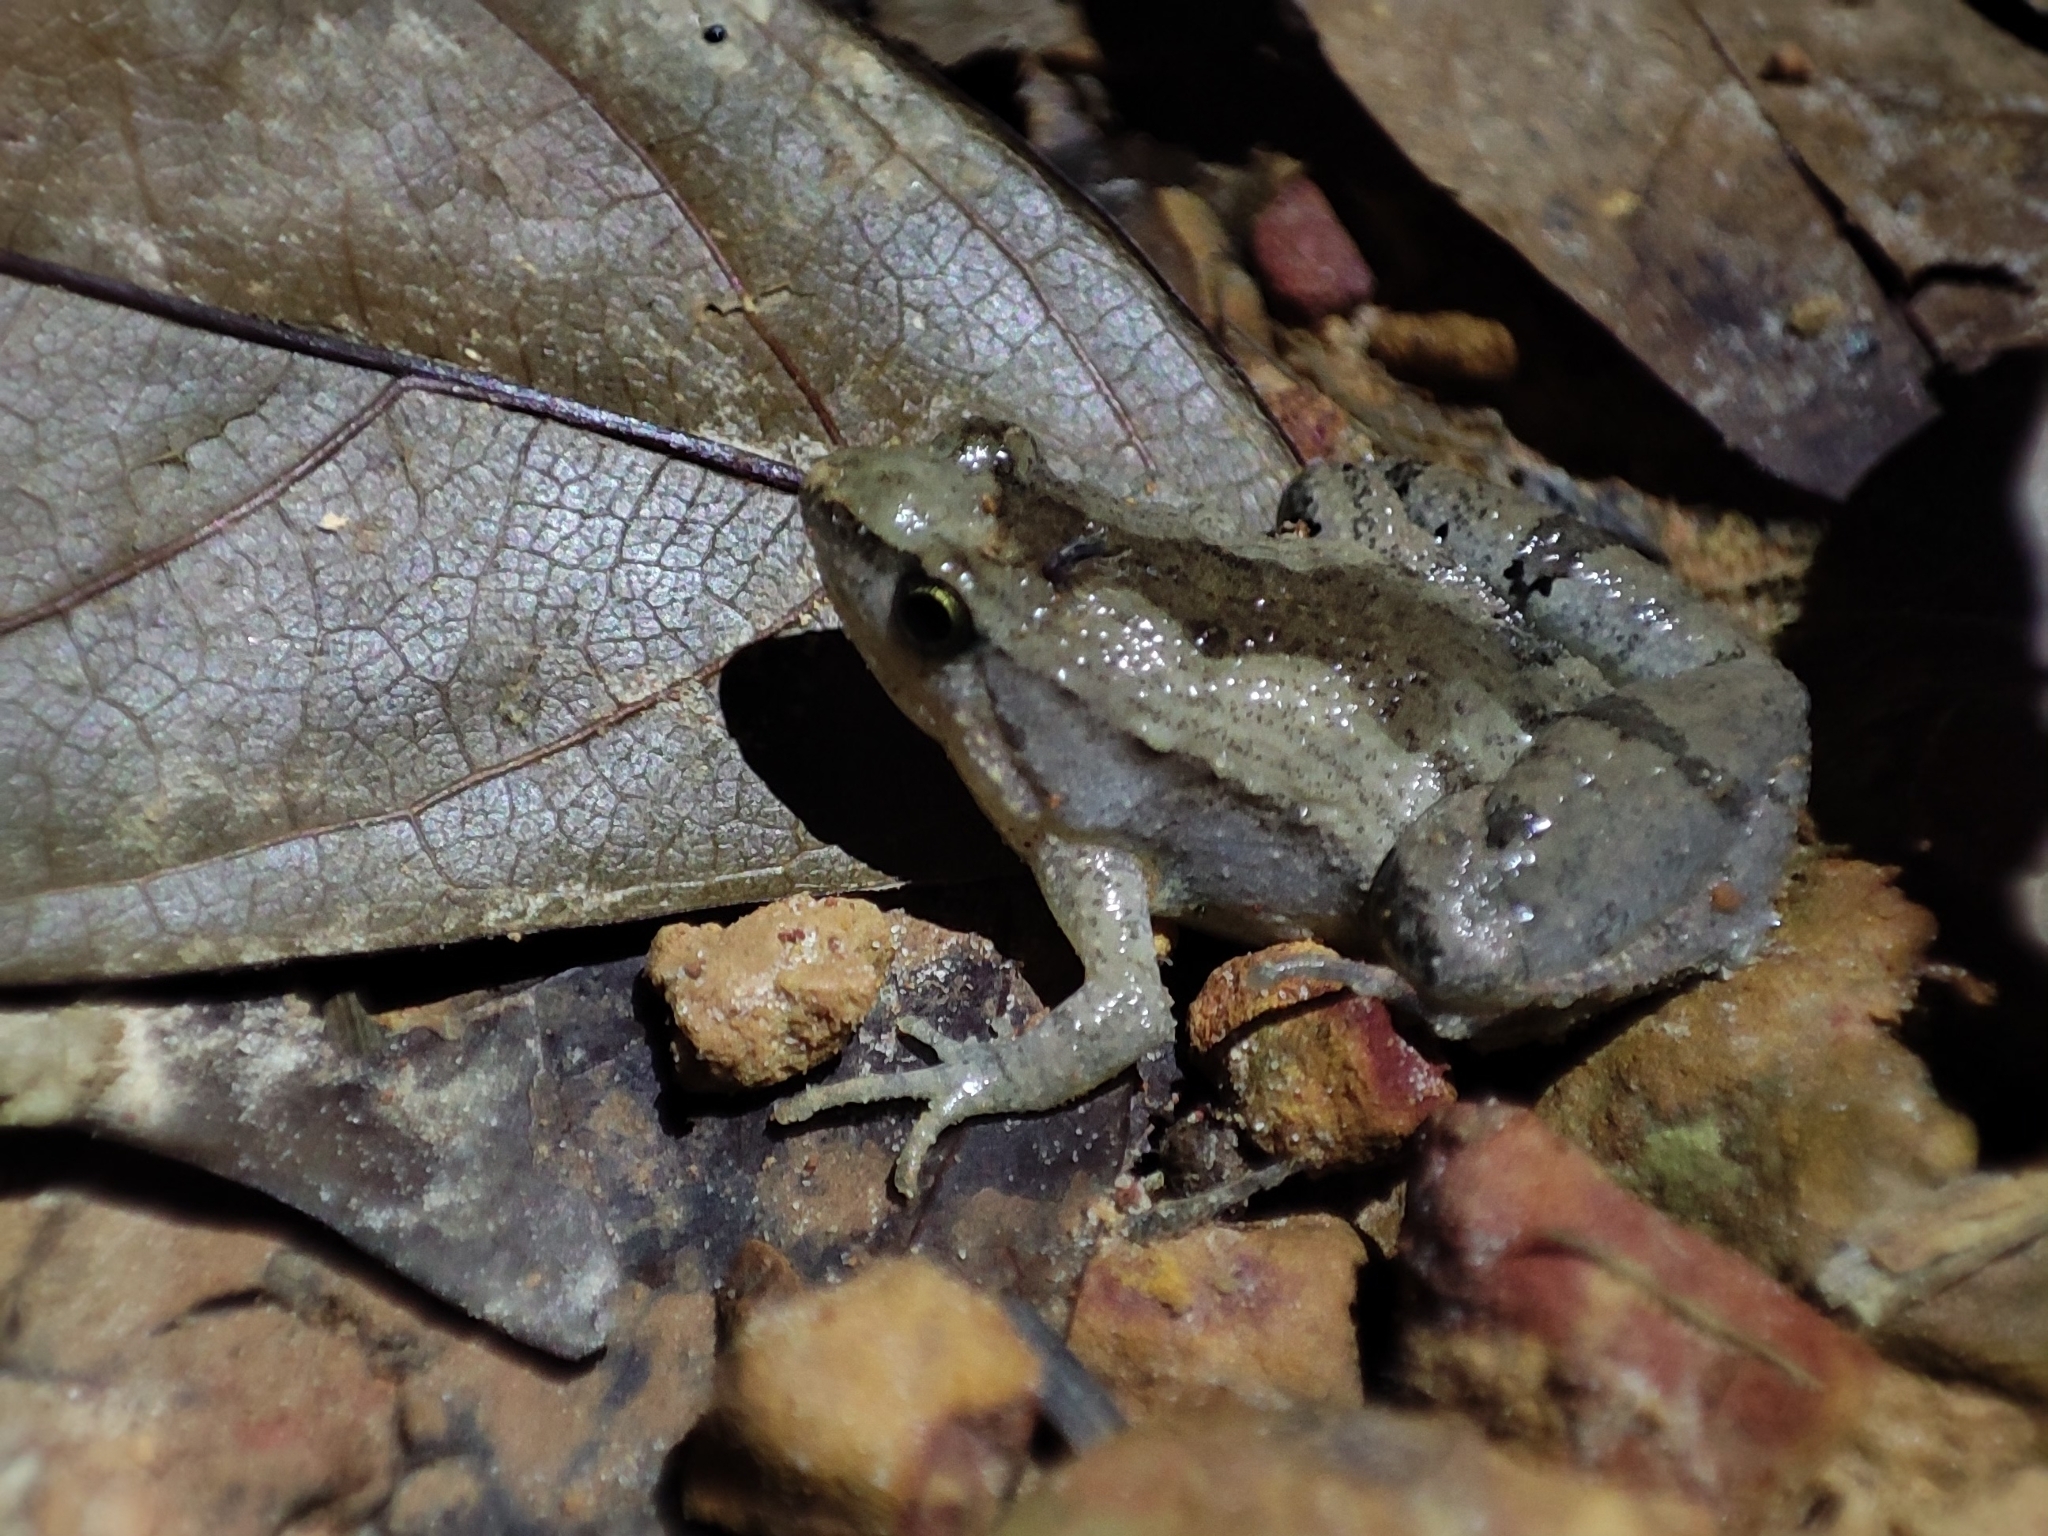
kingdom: Animalia
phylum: Chordata
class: Amphibia
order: Anura
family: Microhylidae
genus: Microhyla
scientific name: Microhyla mukhlesuri
